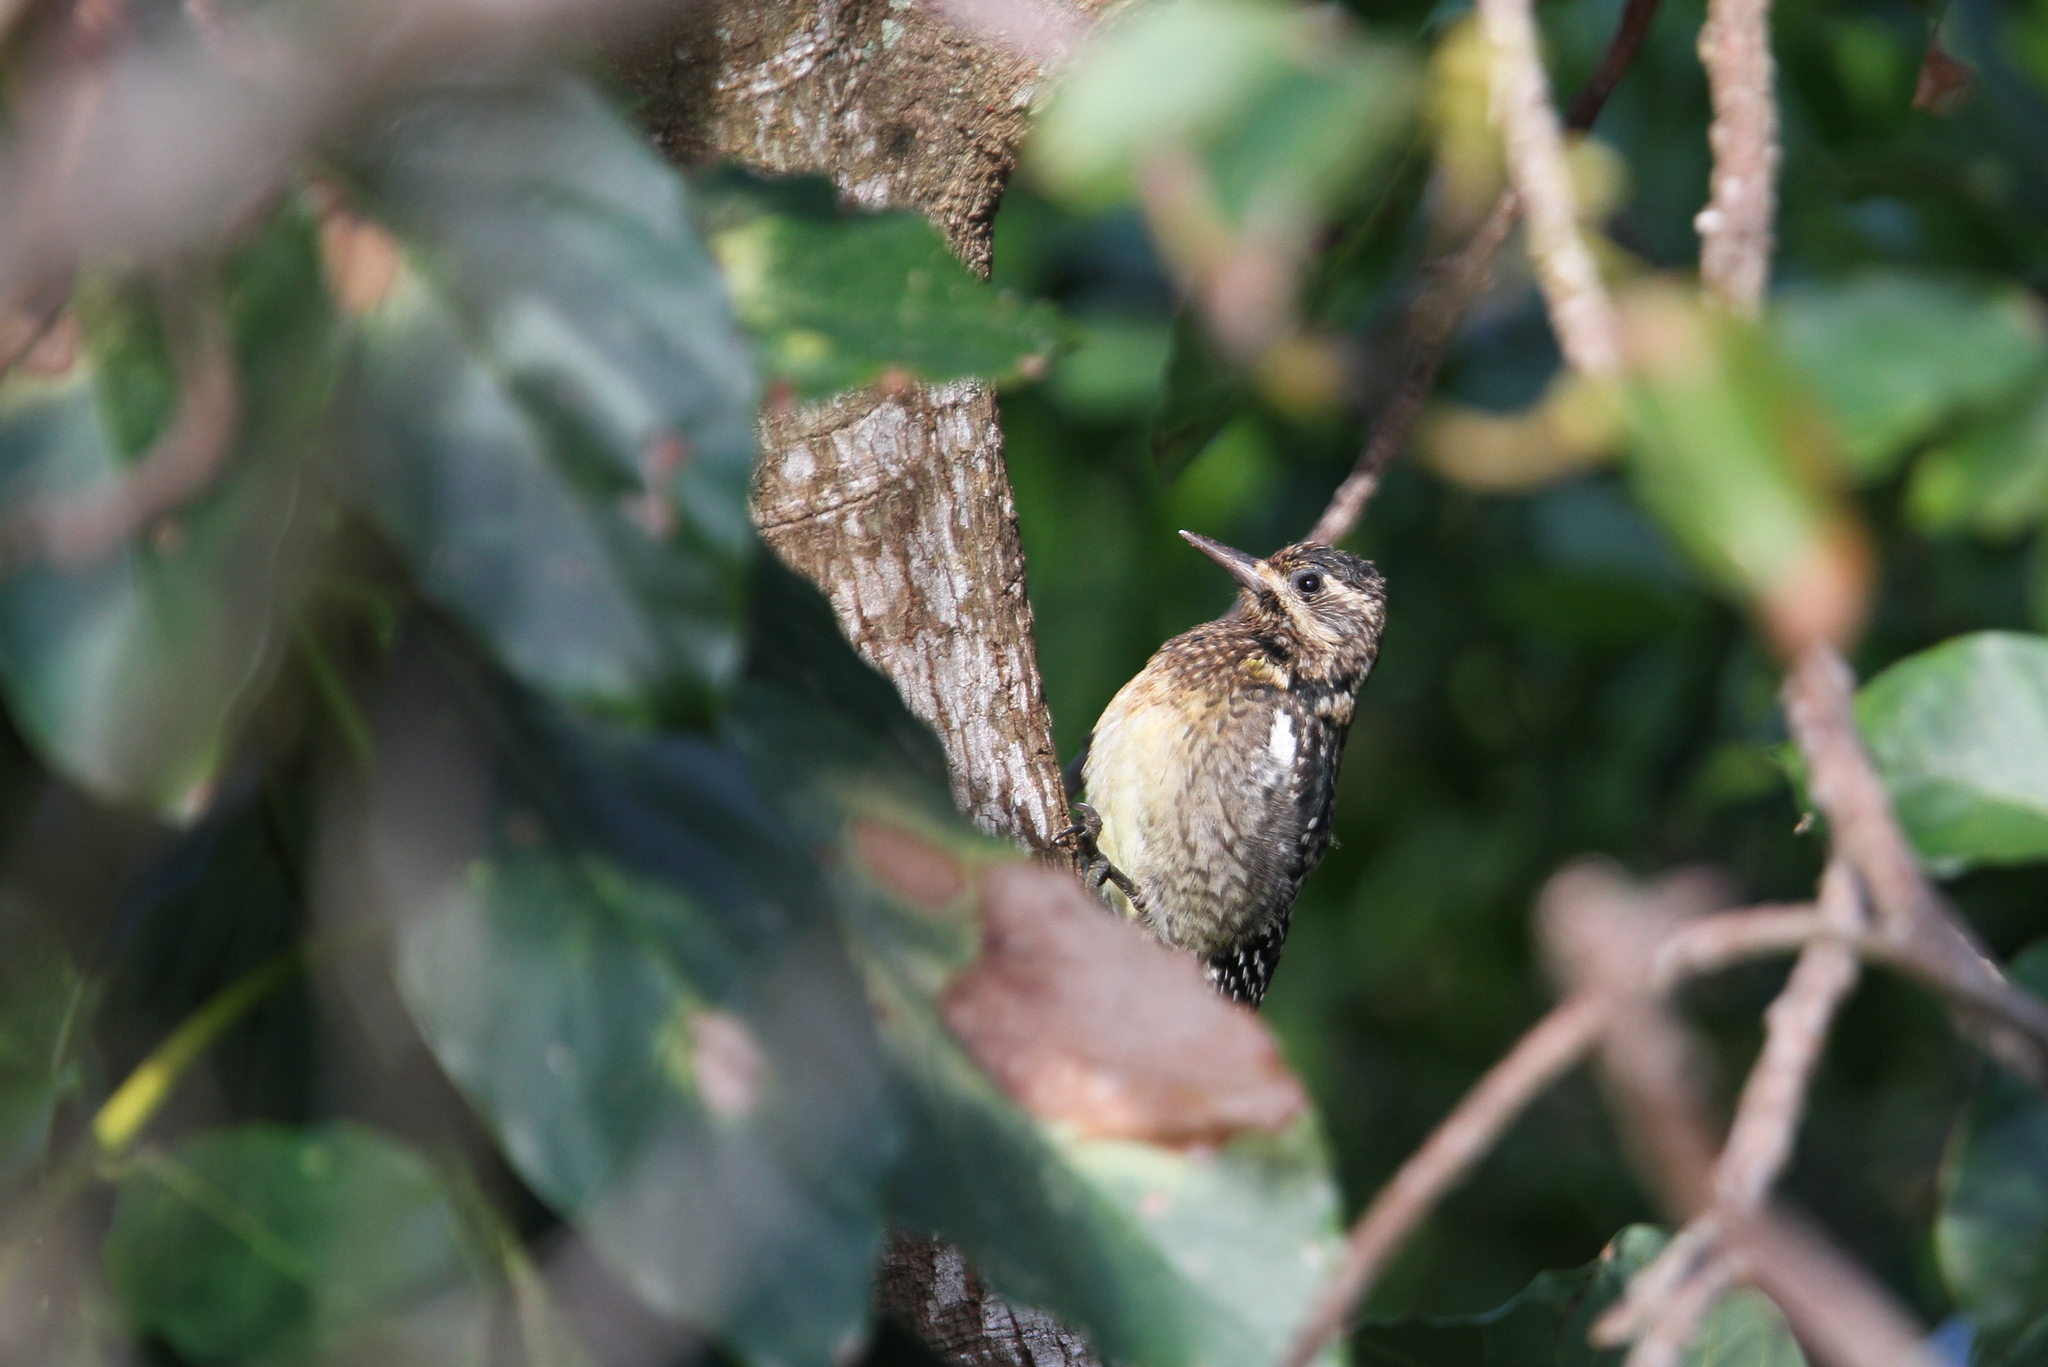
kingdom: Animalia
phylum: Chordata
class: Aves
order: Piciformes
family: Picidae
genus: Sphyrapicus
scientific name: Sphyrapicus varius
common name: Yellow-bellied sapsucker
